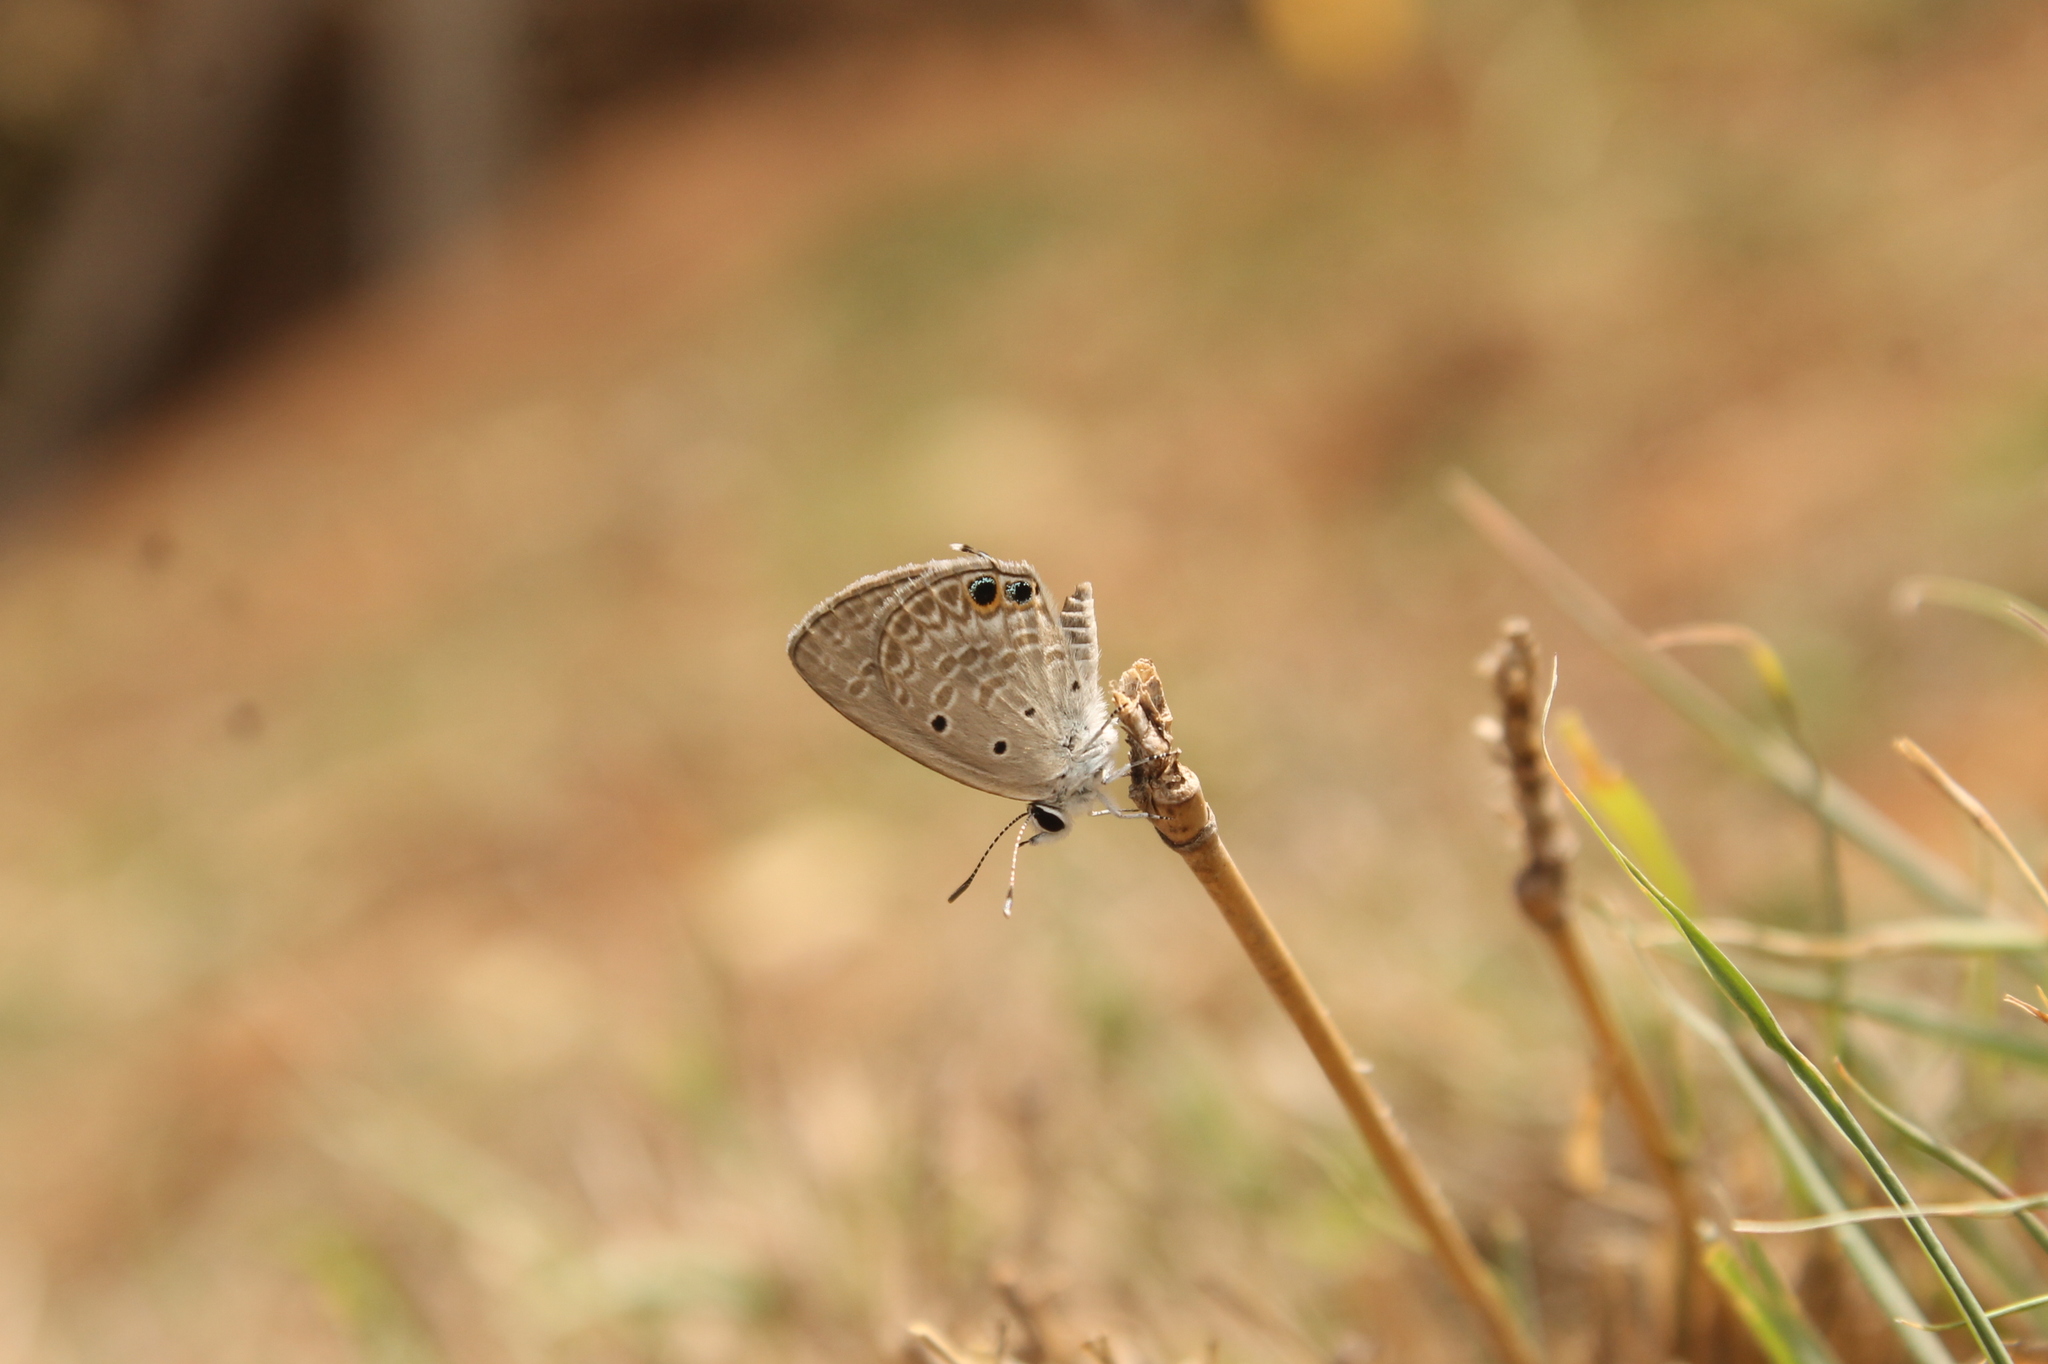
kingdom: Animalia
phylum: Arthropoda
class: Insecta
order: Lepidoptera
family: Lycaenidae
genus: Euchrysops
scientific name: Euchrysops cnejus
